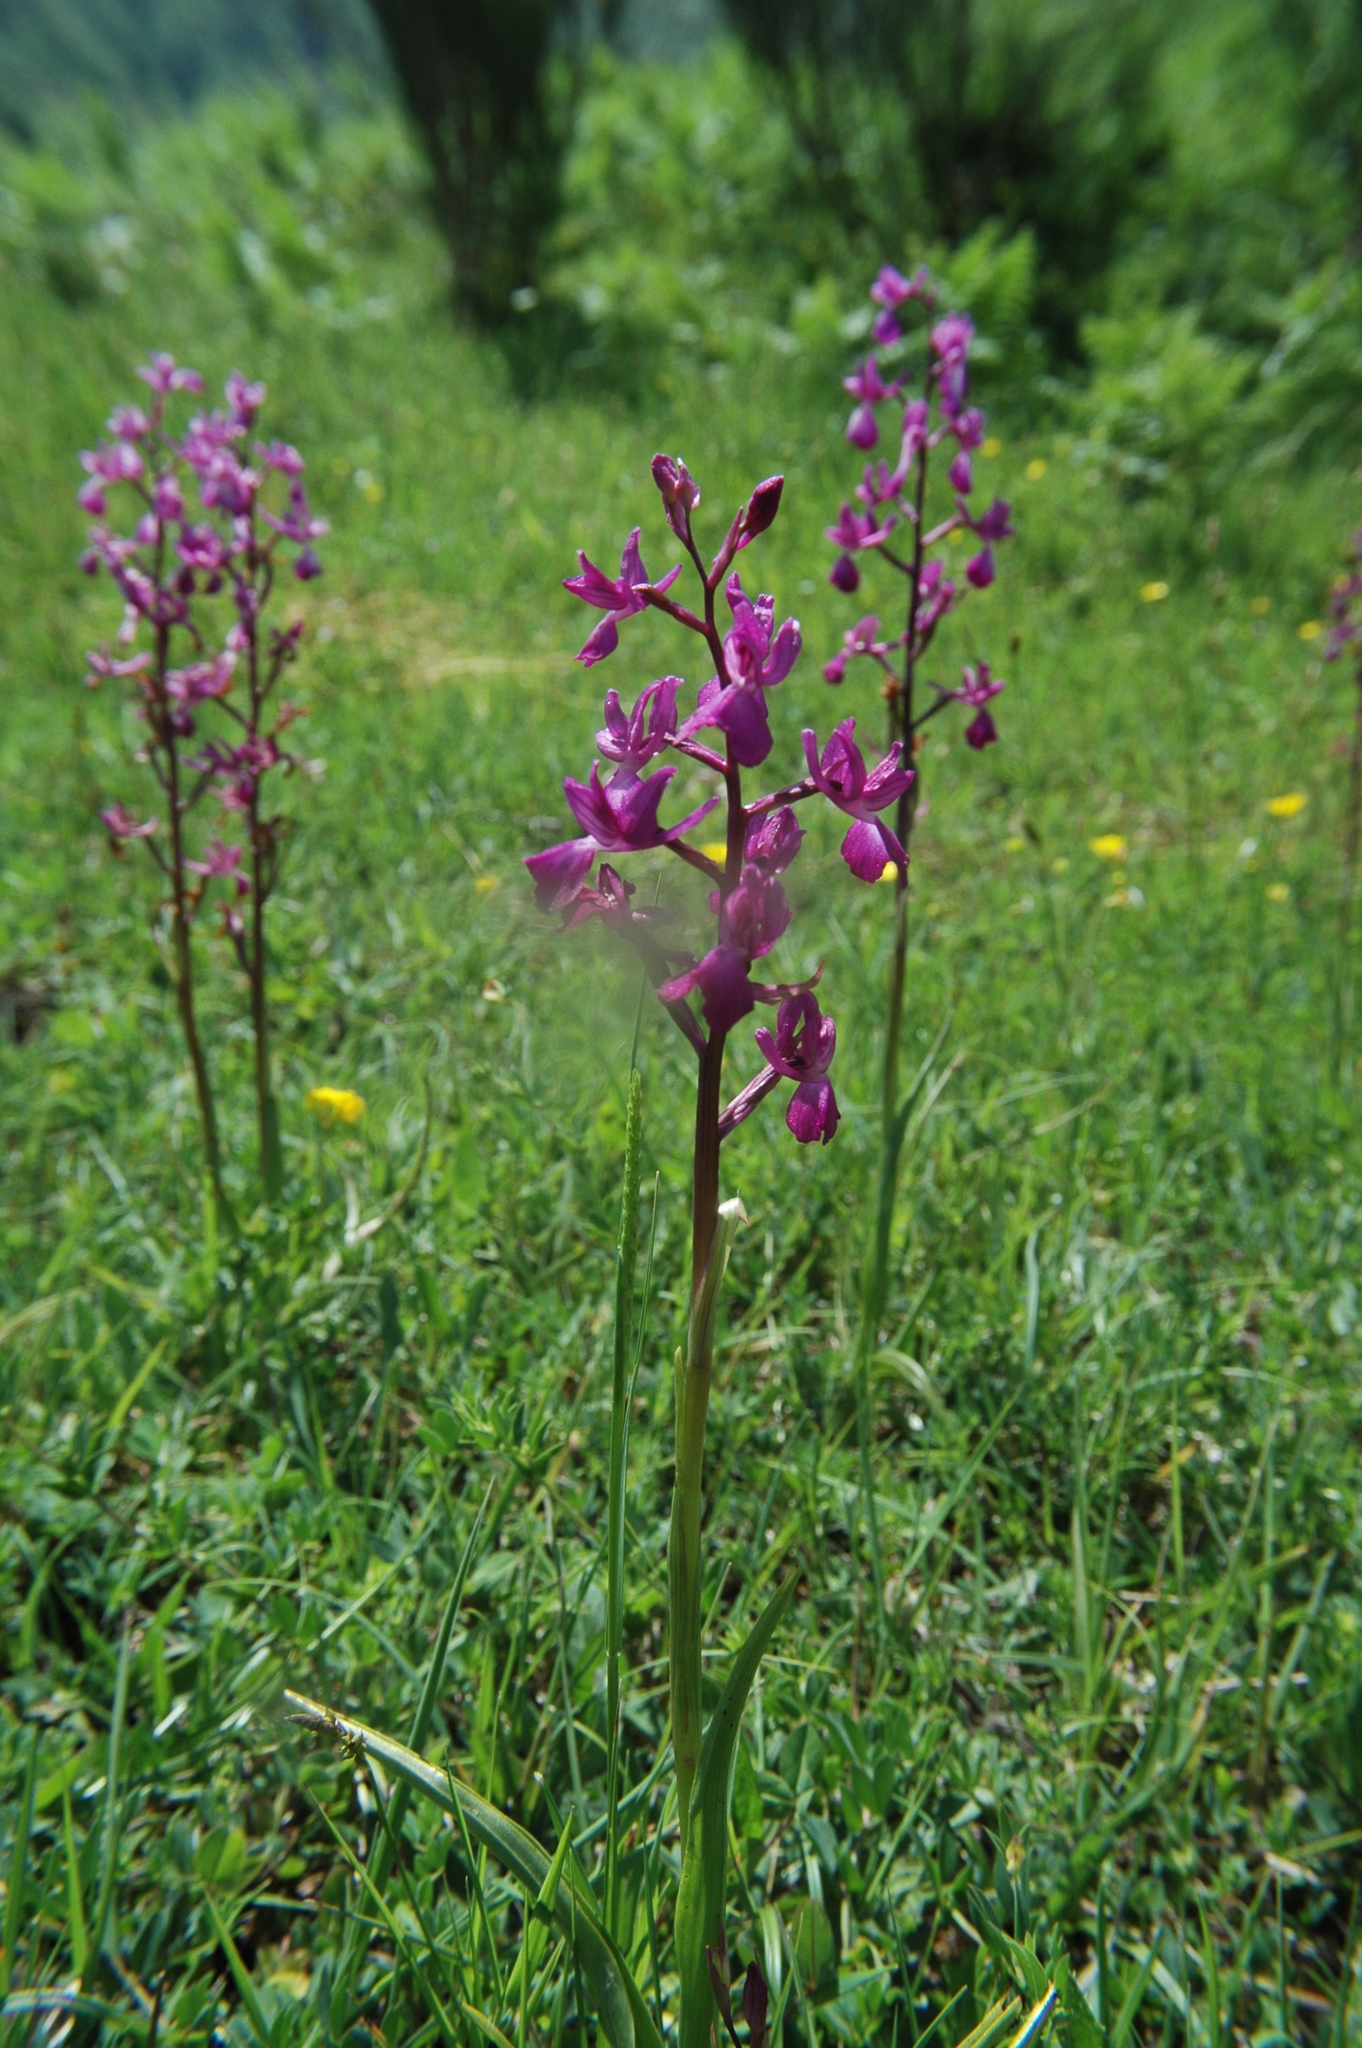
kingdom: Plantae
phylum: Tracheophyta
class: Liliopsida
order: Asparagales
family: Orchidaceae
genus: Anacamptis
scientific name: Anacamptis laxiflora
